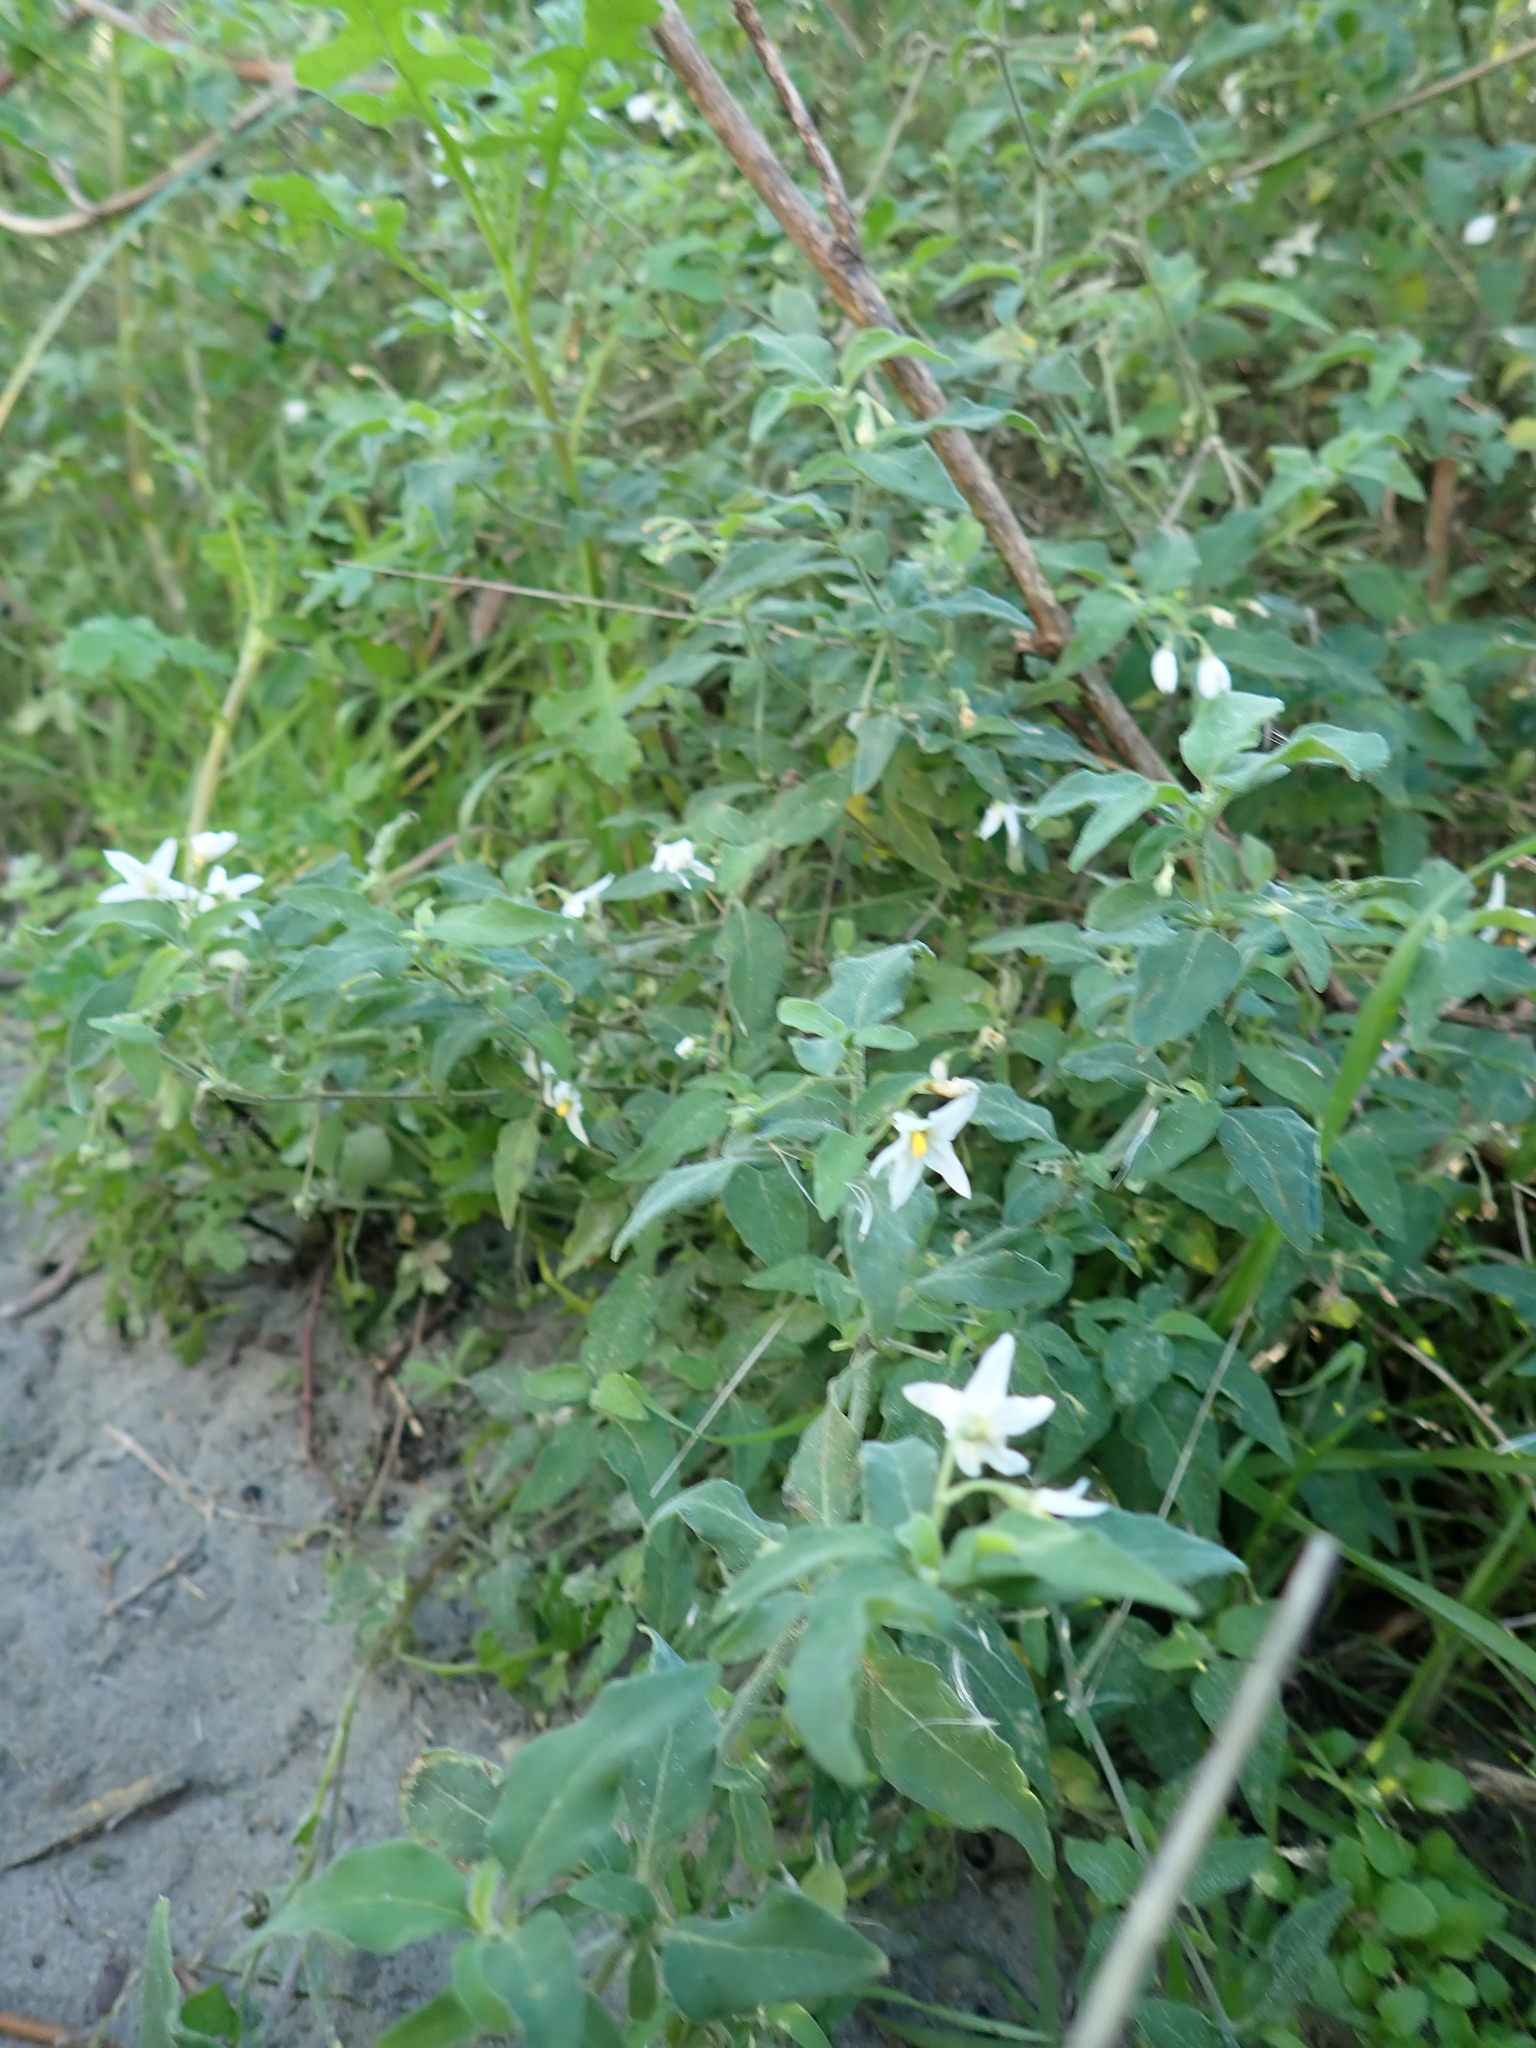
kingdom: Plantae
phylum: Tracheophyta
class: Magnoliopsida
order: Solanales
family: Solanaceae
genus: Solanum
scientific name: Solanum chenopodioides
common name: Tall nightshade
